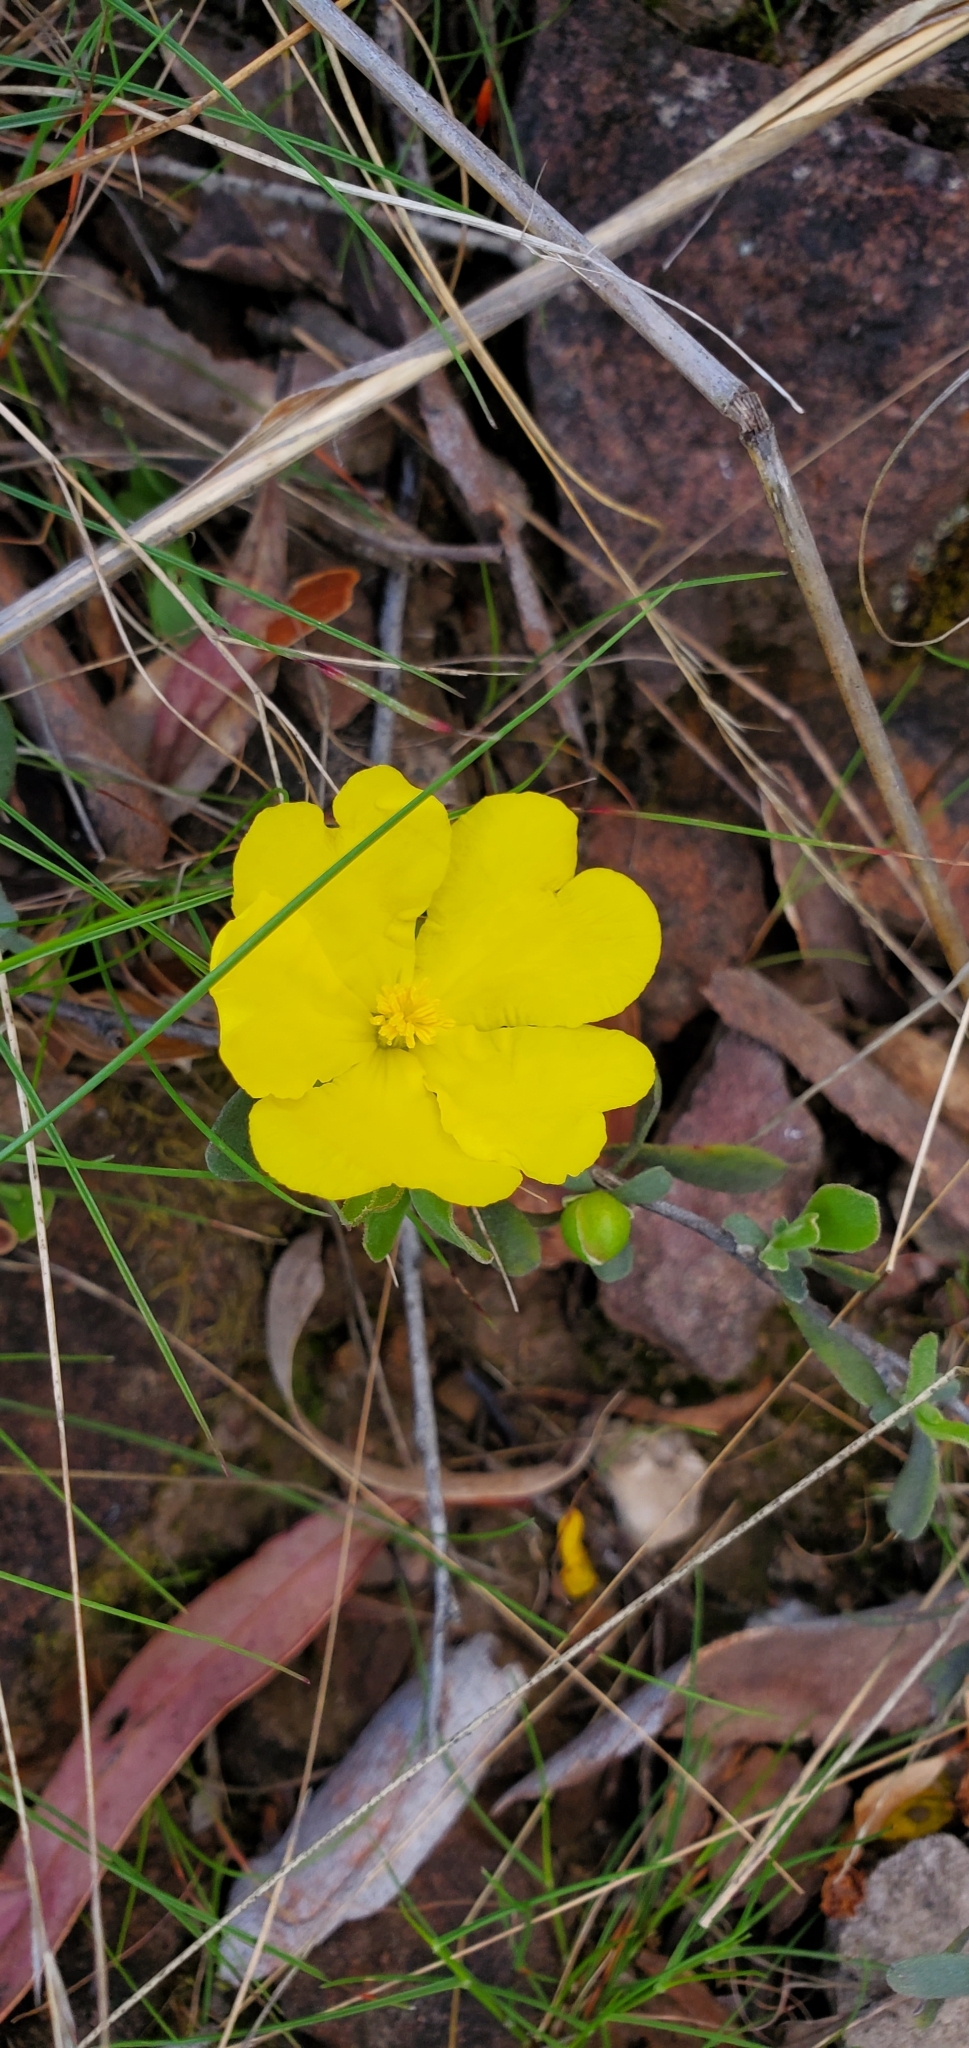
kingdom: Plantae
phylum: Tracheophyta
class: Magnoliopsida
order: Dilleniales
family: Dilleniaceae
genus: Hibbertia
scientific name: Hibbertia obtusifolia
